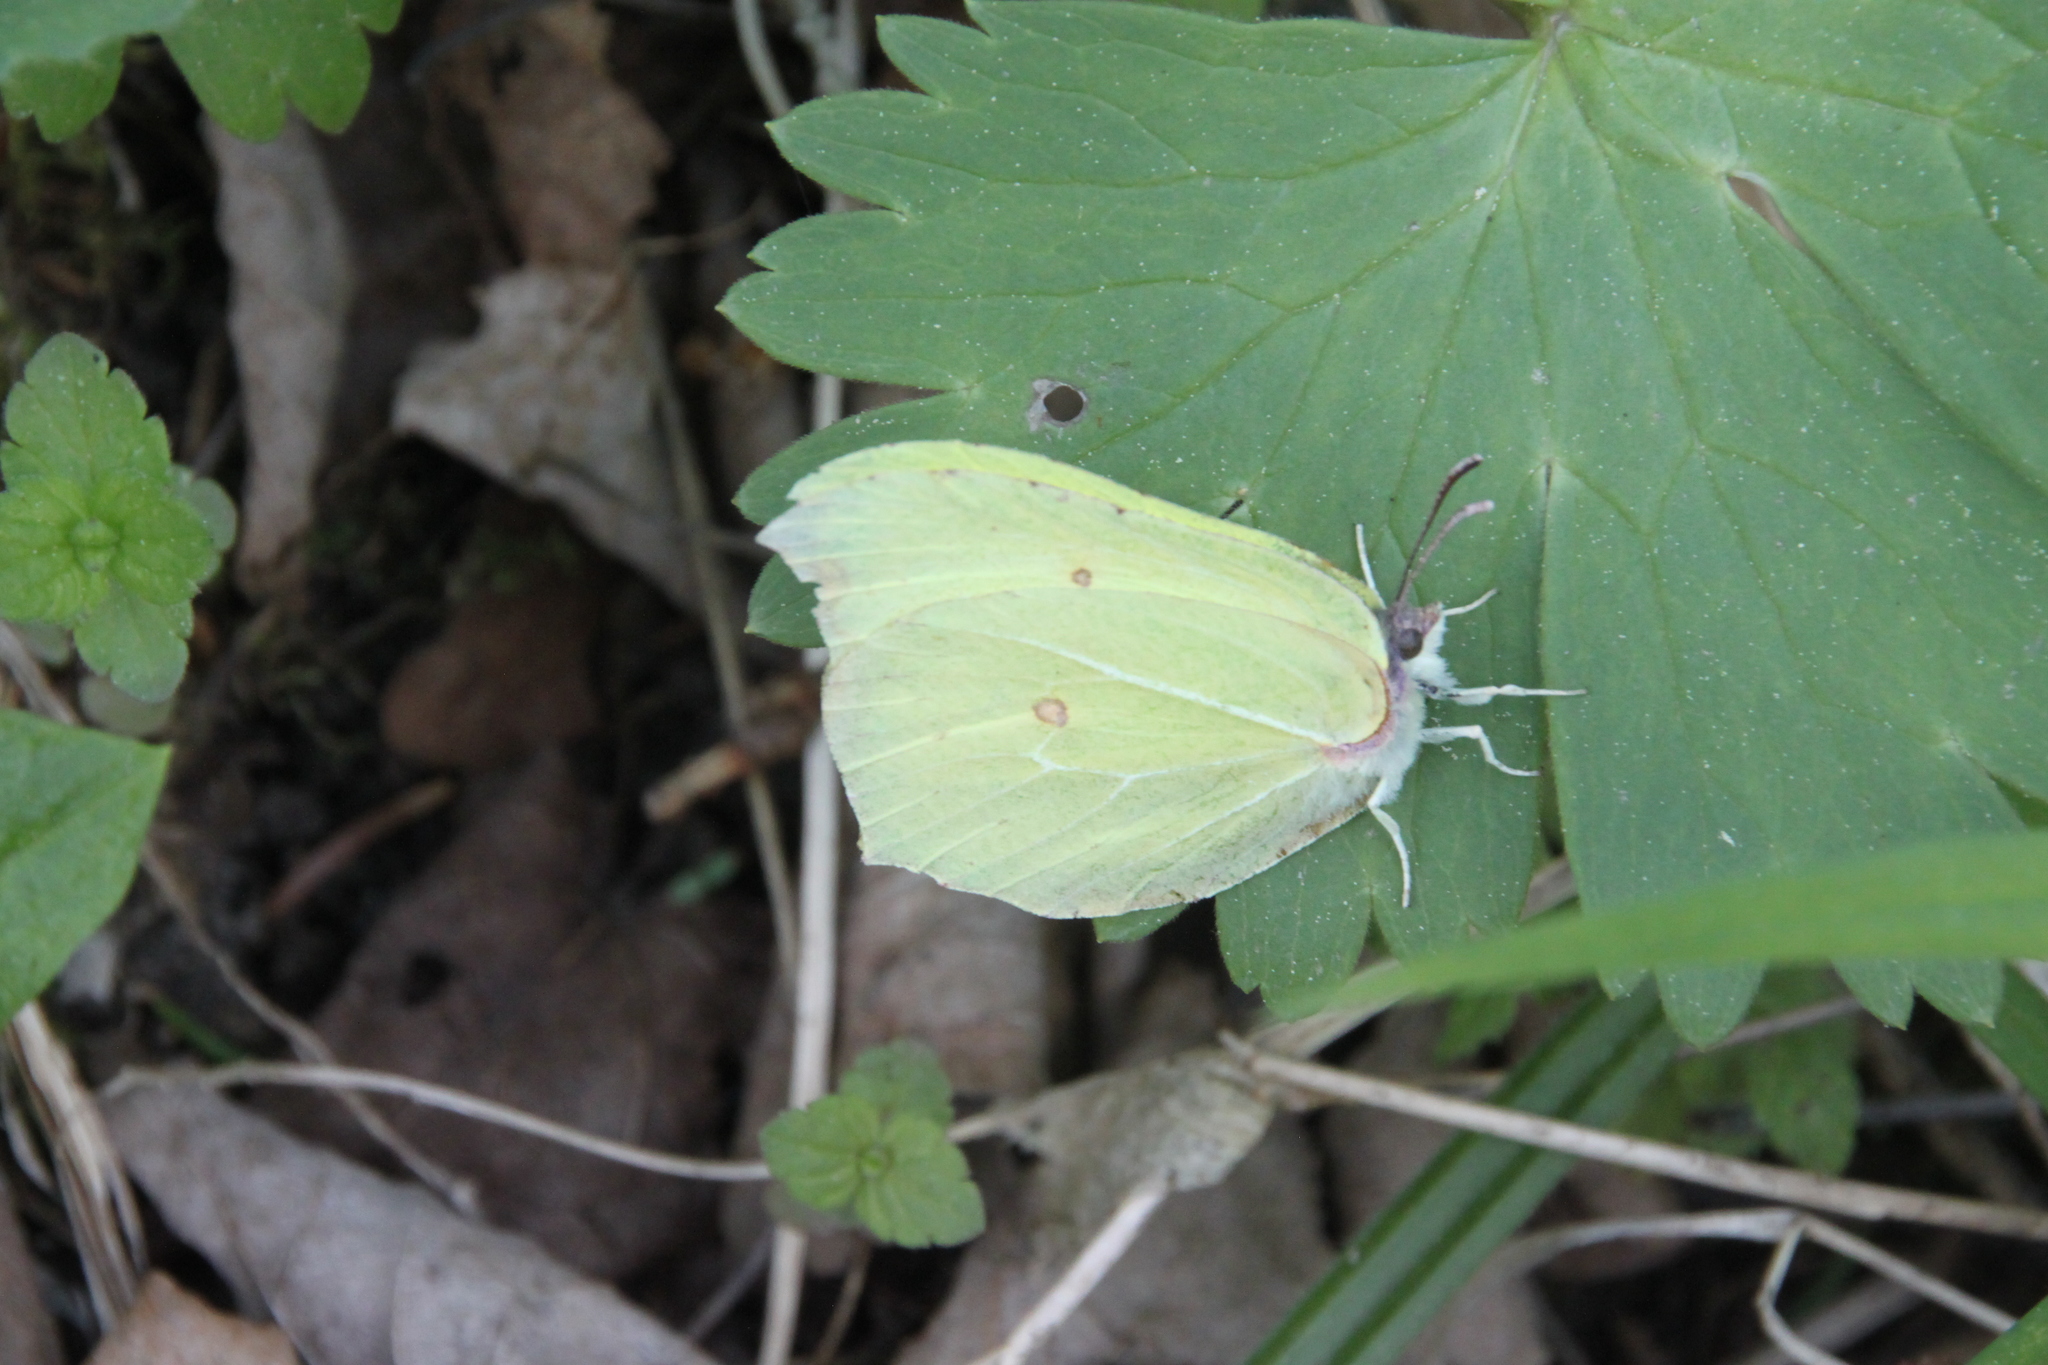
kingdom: Animalia
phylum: Arthropoda
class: Insecta
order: Lepidoptera
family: Pieridae
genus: Gonepteryx
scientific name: Gonepteryx rhamni
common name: Brimstone
